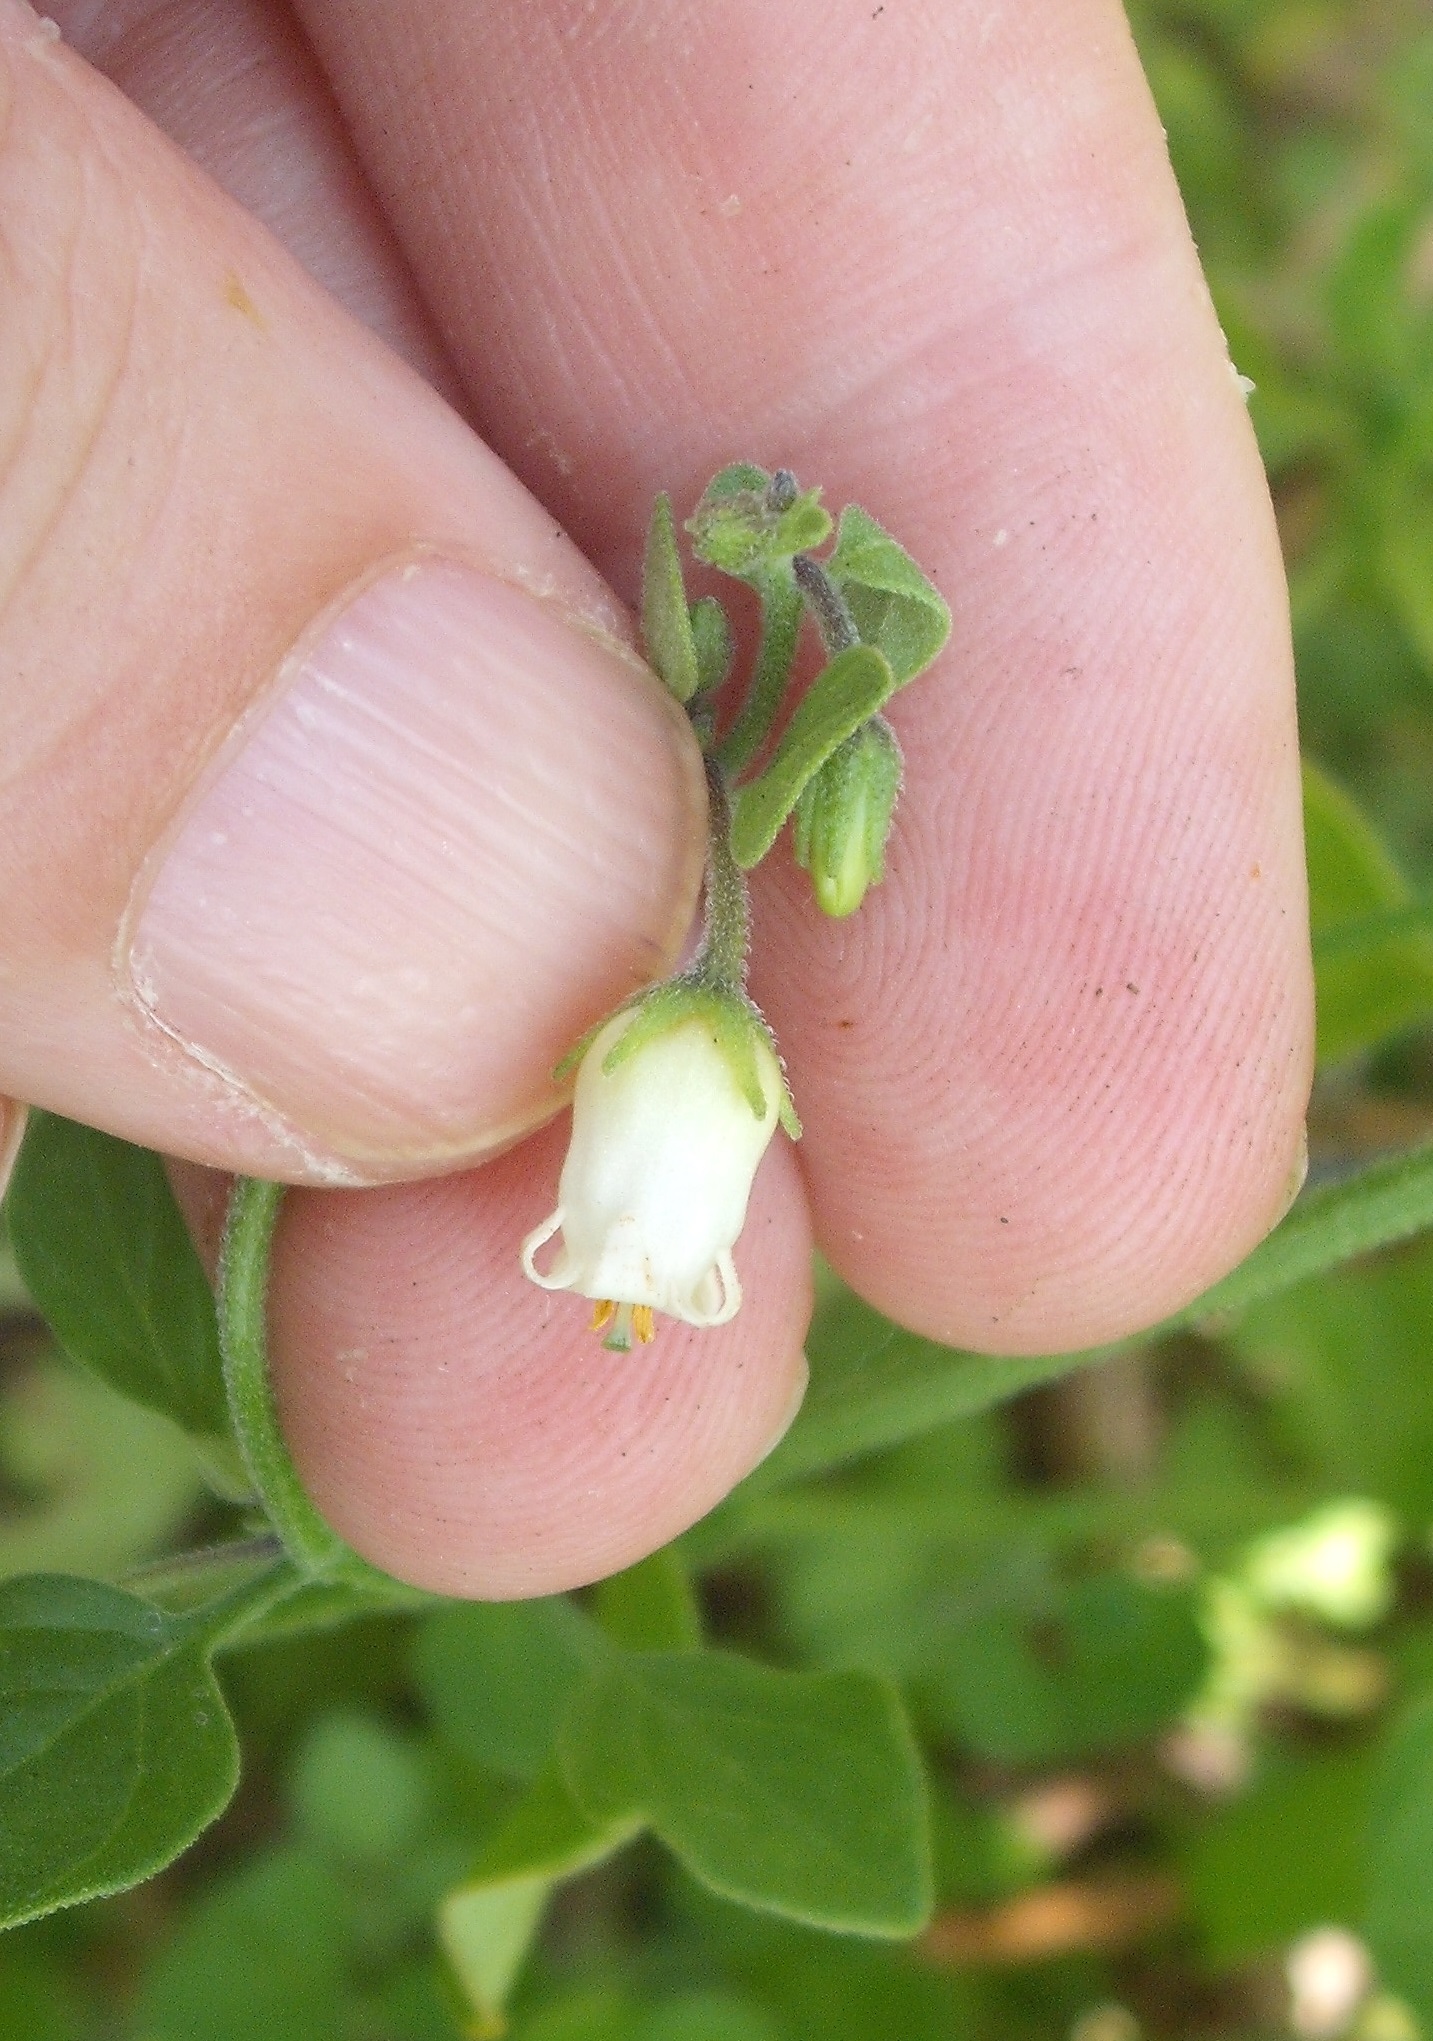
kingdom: Plantae
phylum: Tracheophyta
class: Magnoliopsida
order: Solanales
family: Solanaceae
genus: Salpichroa
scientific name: Salpichroa origanifolia
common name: Lily-of-the-valley-vine
